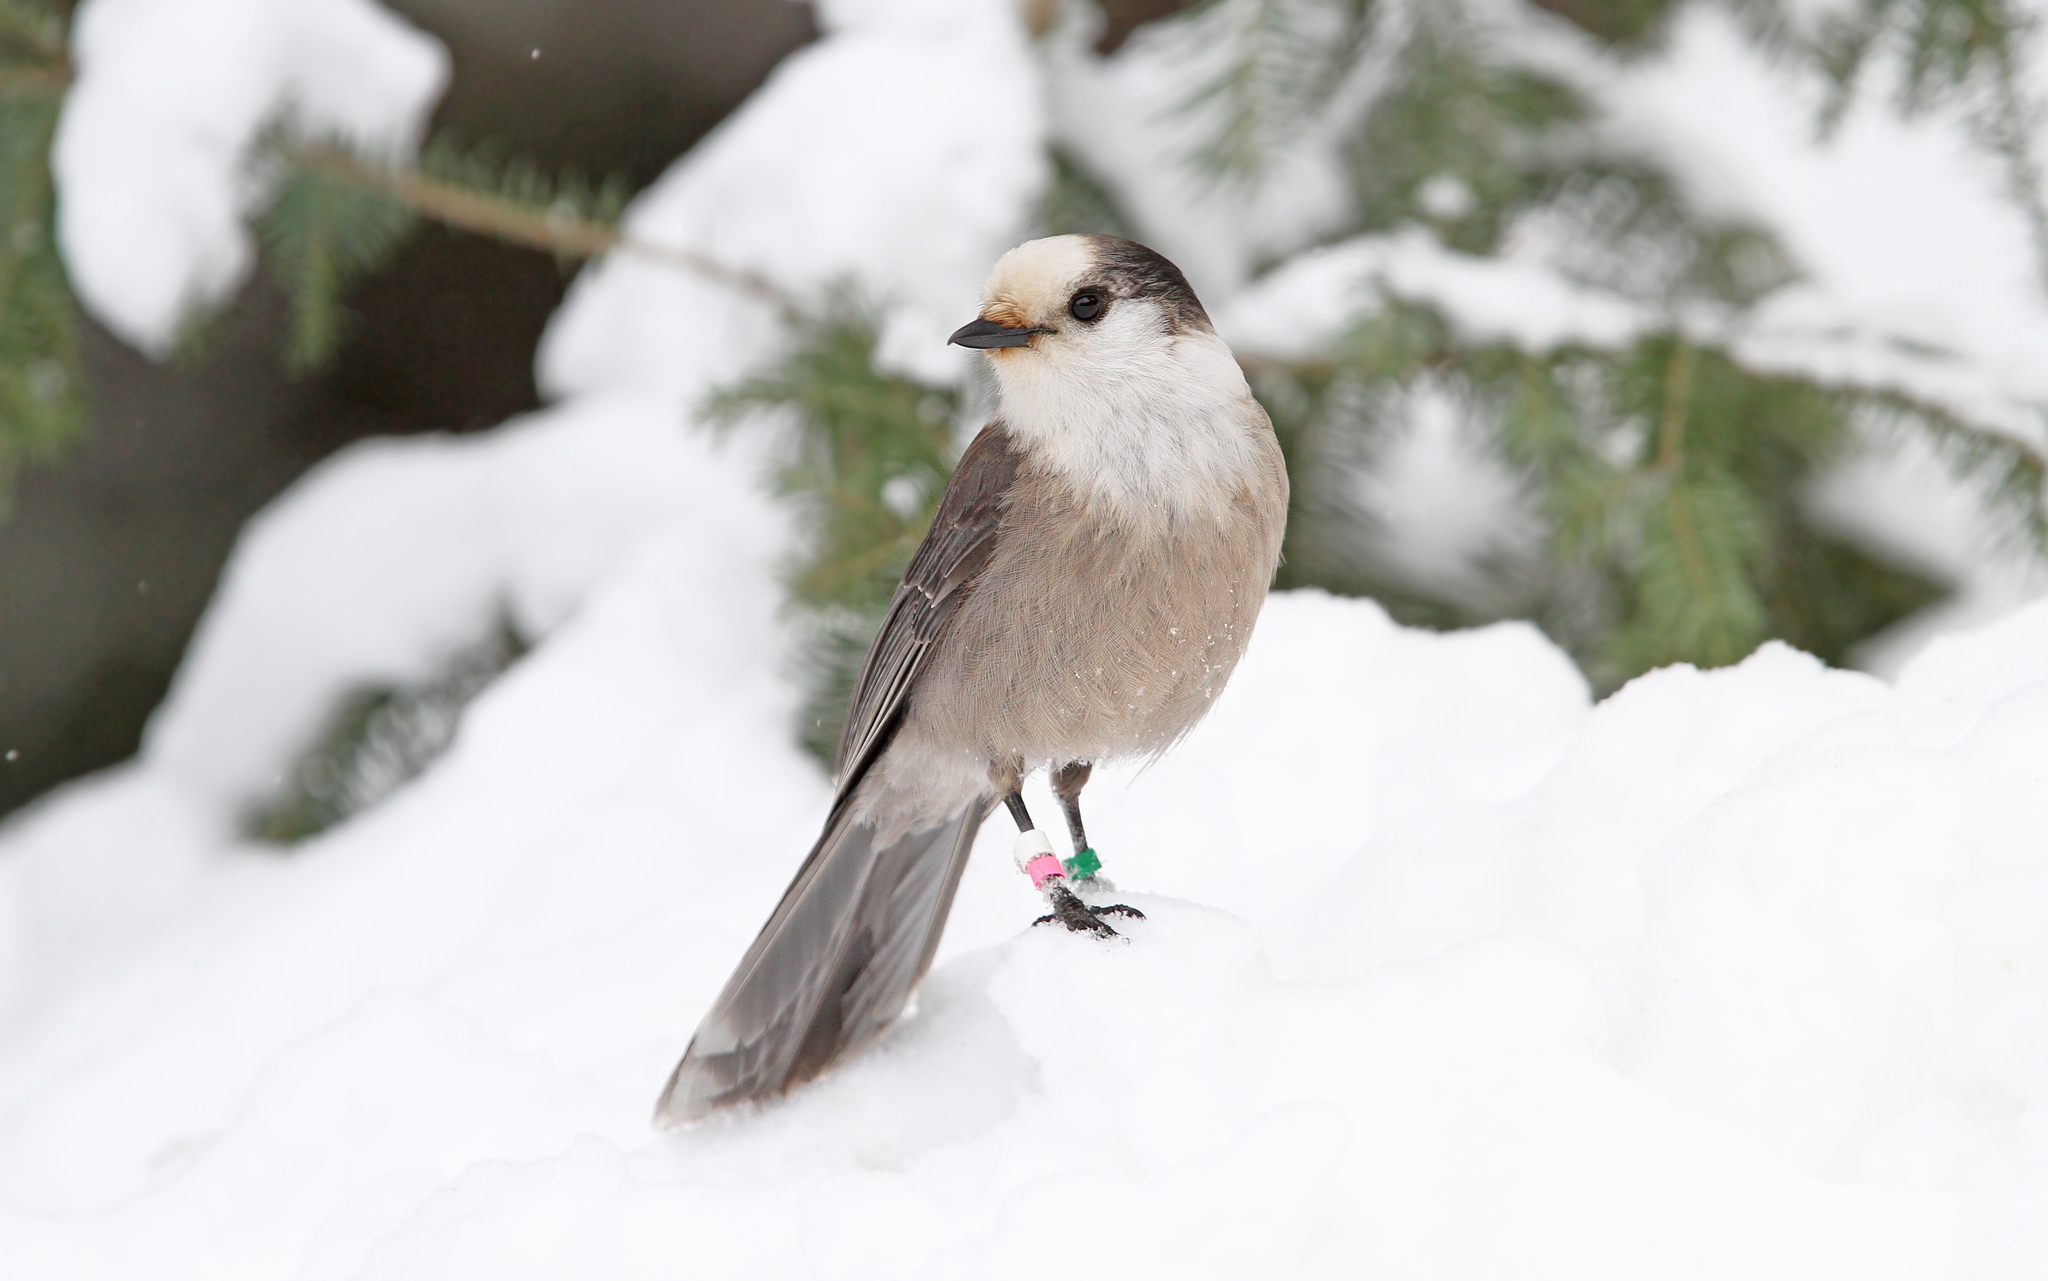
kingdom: Animalia
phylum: Chordata
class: Aves
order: Passeriformes
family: Corvidae
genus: Perisoreus
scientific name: Perisoreus canadensis
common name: Gray jay
